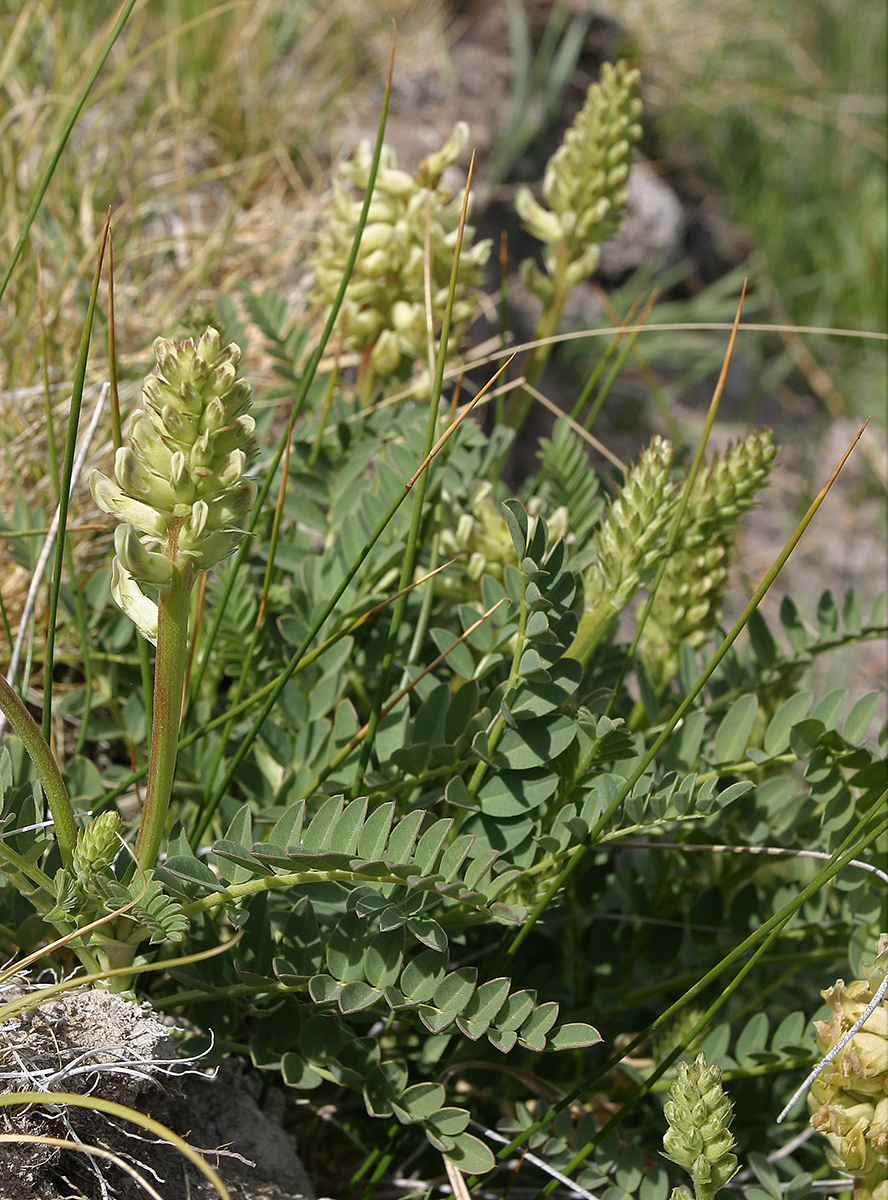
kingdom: Plantae
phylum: Tracheophyta
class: Magnoliopsida
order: Fabales
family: Fabaceae
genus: Astragalus
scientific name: Astragalus canadensis
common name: Canada milk-vetch
